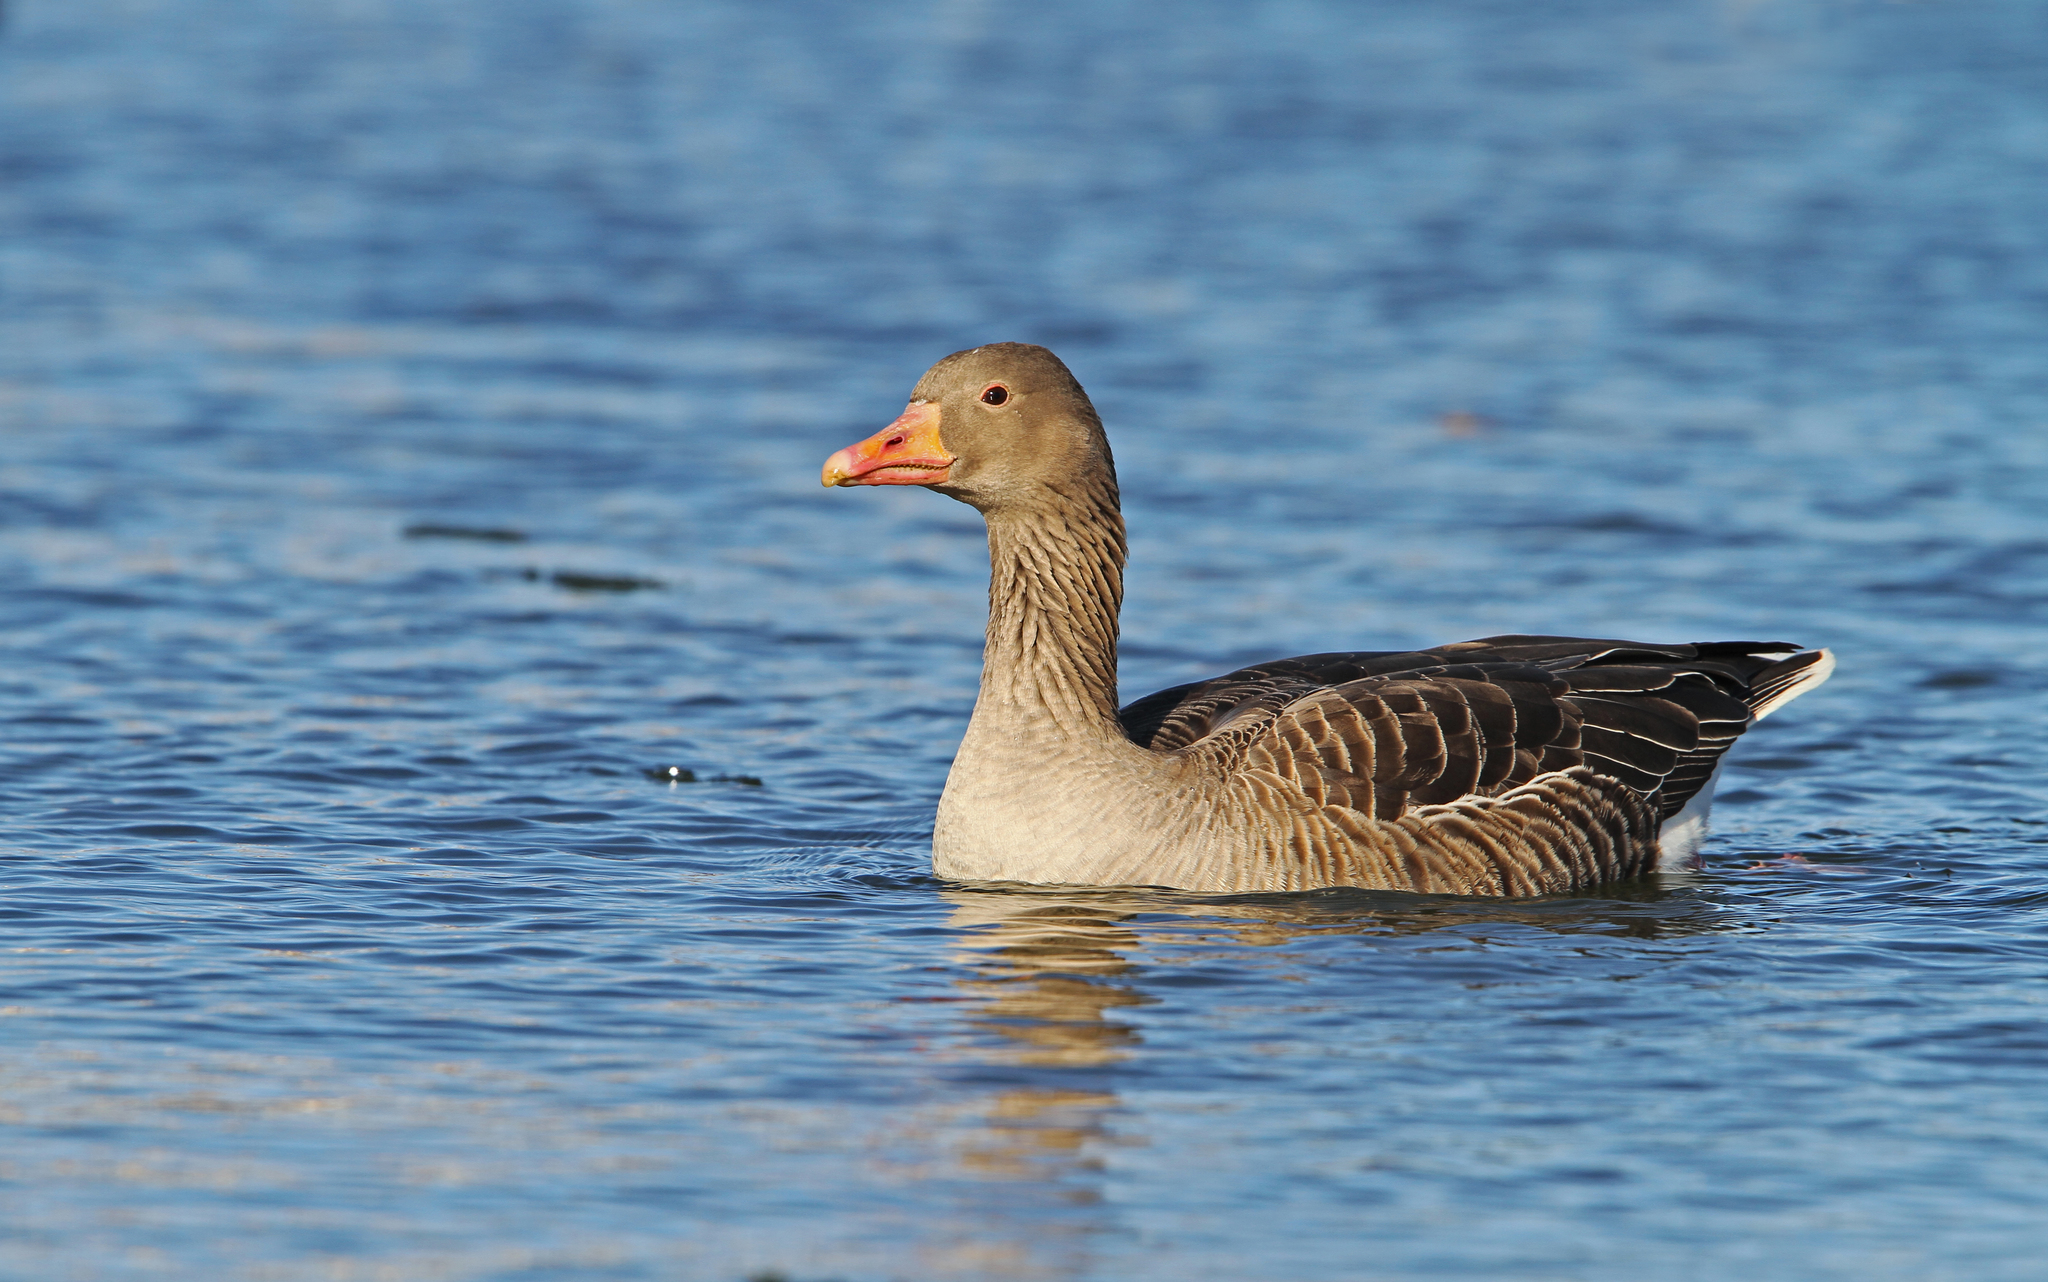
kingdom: Animalia
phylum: Chordata
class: Aves
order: Anseriformes
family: Anatidae
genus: Anser
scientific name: Anser anser
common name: Greylag goose
